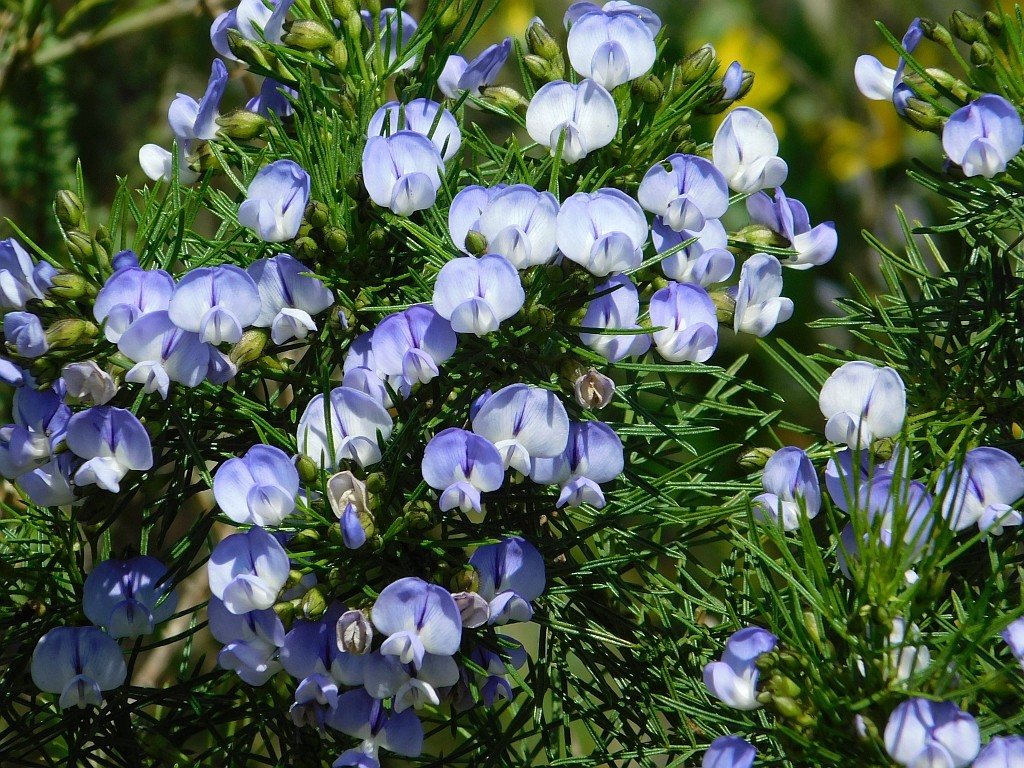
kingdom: Plantae
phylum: Tracheophyta
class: Magnoliopsida
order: Fabales
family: Fabaceae
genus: Psoralea
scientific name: Psoralea affinis
